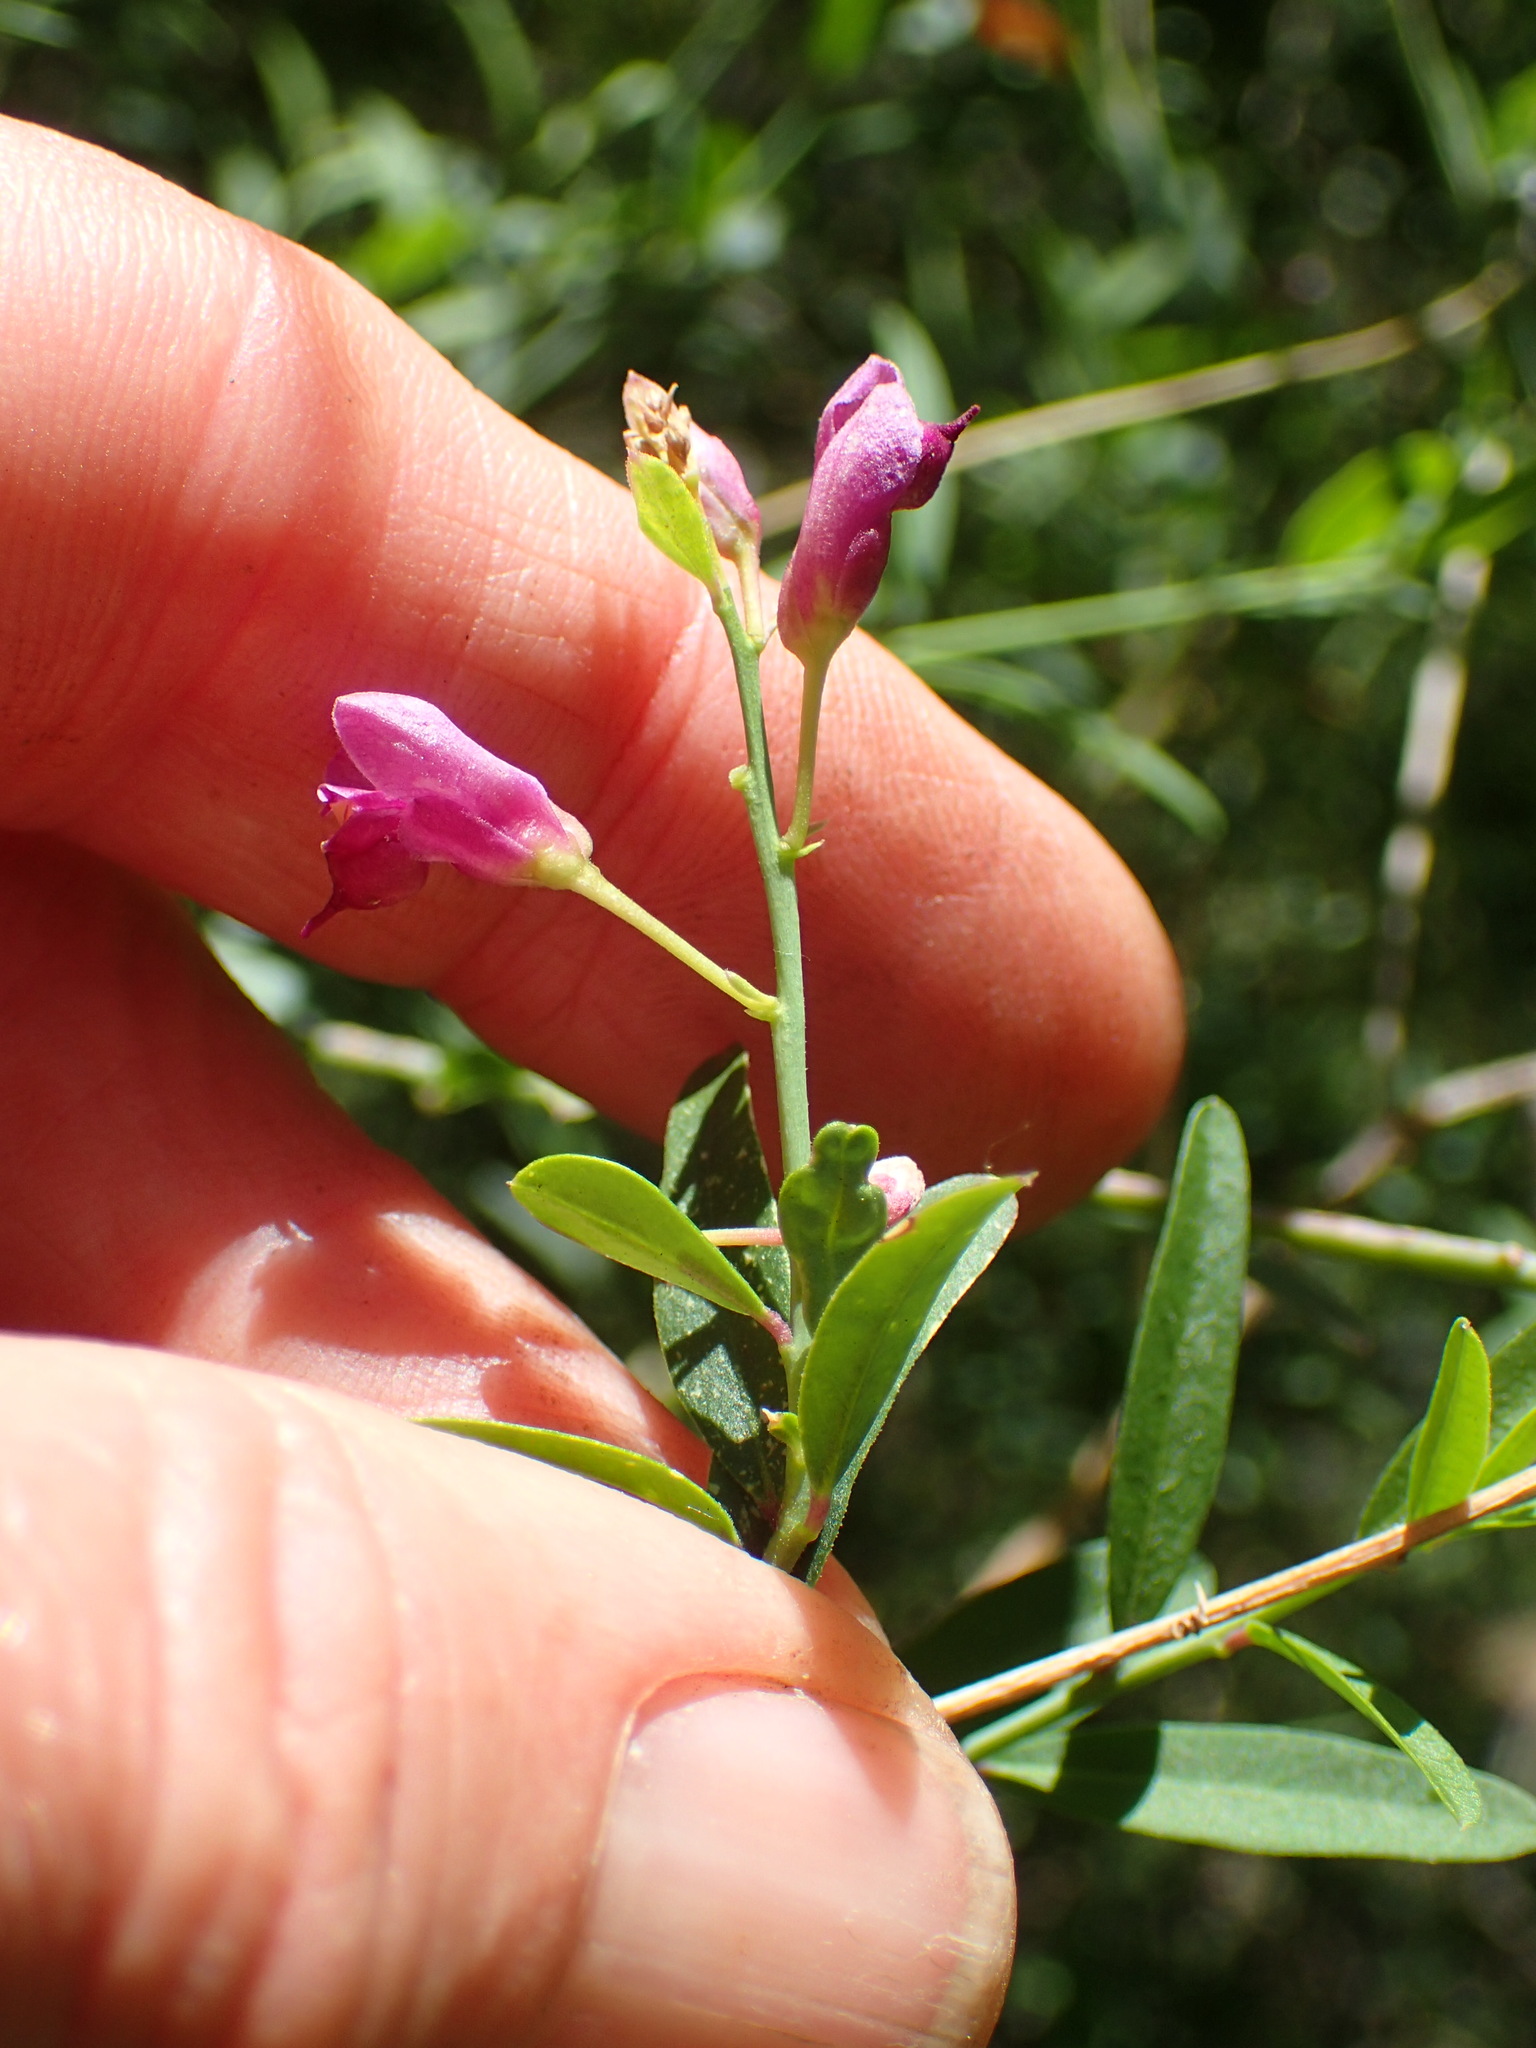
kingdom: Plantae
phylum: Tracheophyta
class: Magnoliopsida
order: Fabales
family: Polygalaceae
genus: Rhinotropis
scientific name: Rhinotropis cornuta
